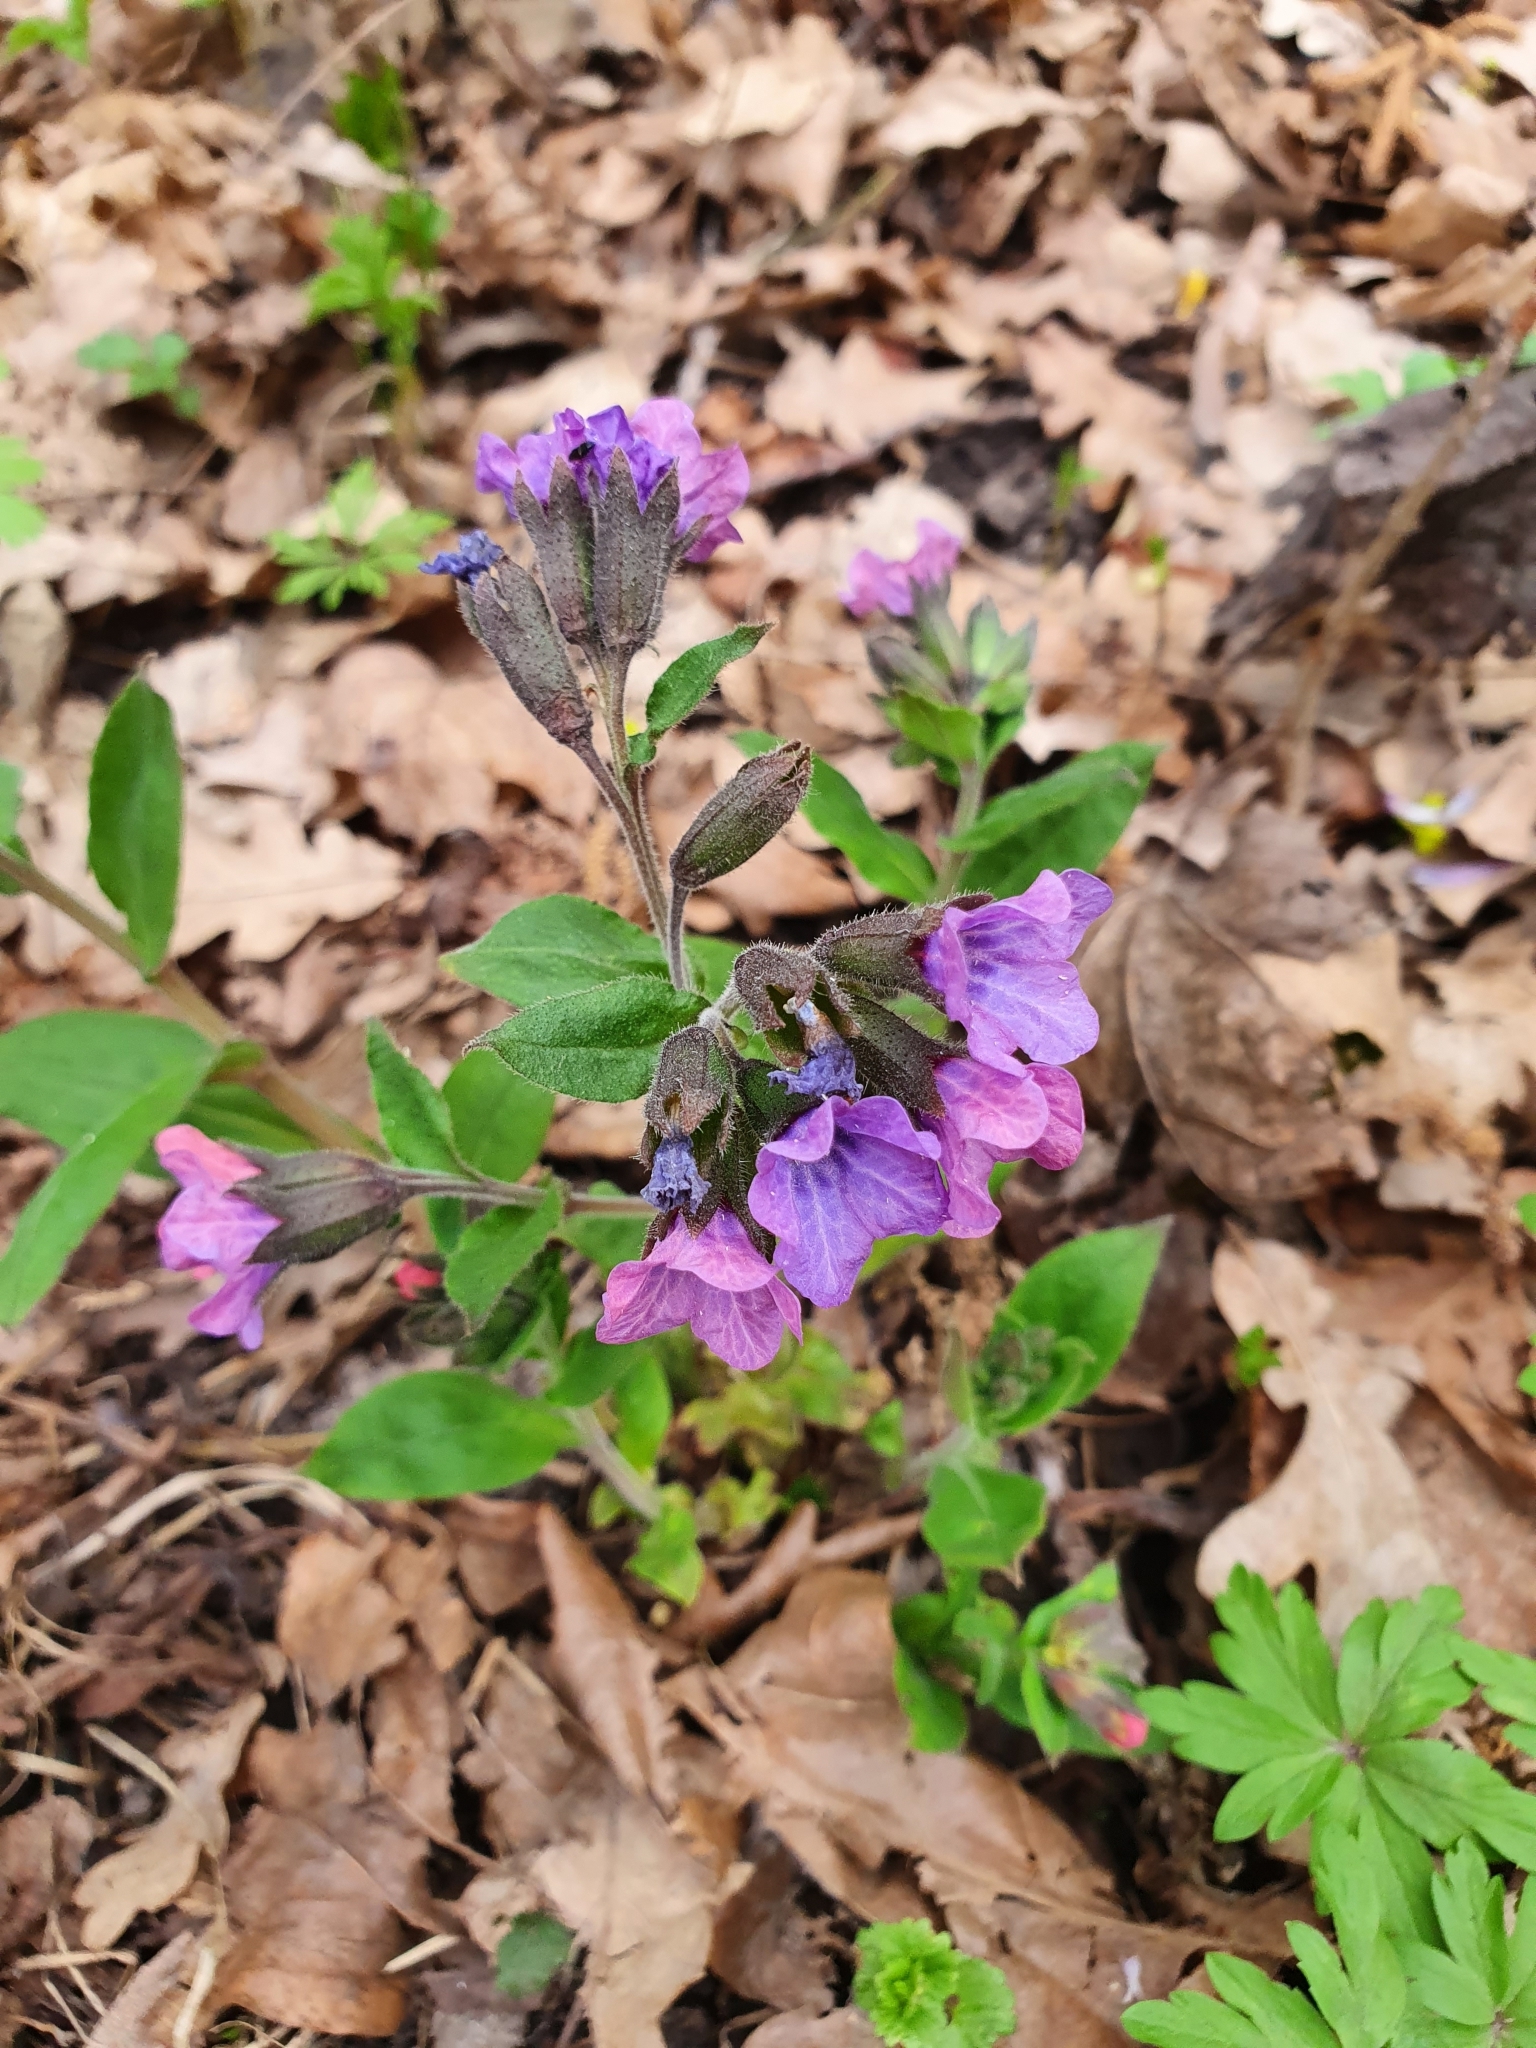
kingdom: Plantae
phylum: Tracheophyta
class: Magnoliopsida
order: Boraginales
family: Boraginaceae
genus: Pulmonaria
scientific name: Pulmonaria obscura
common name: Suffolk lungwort
